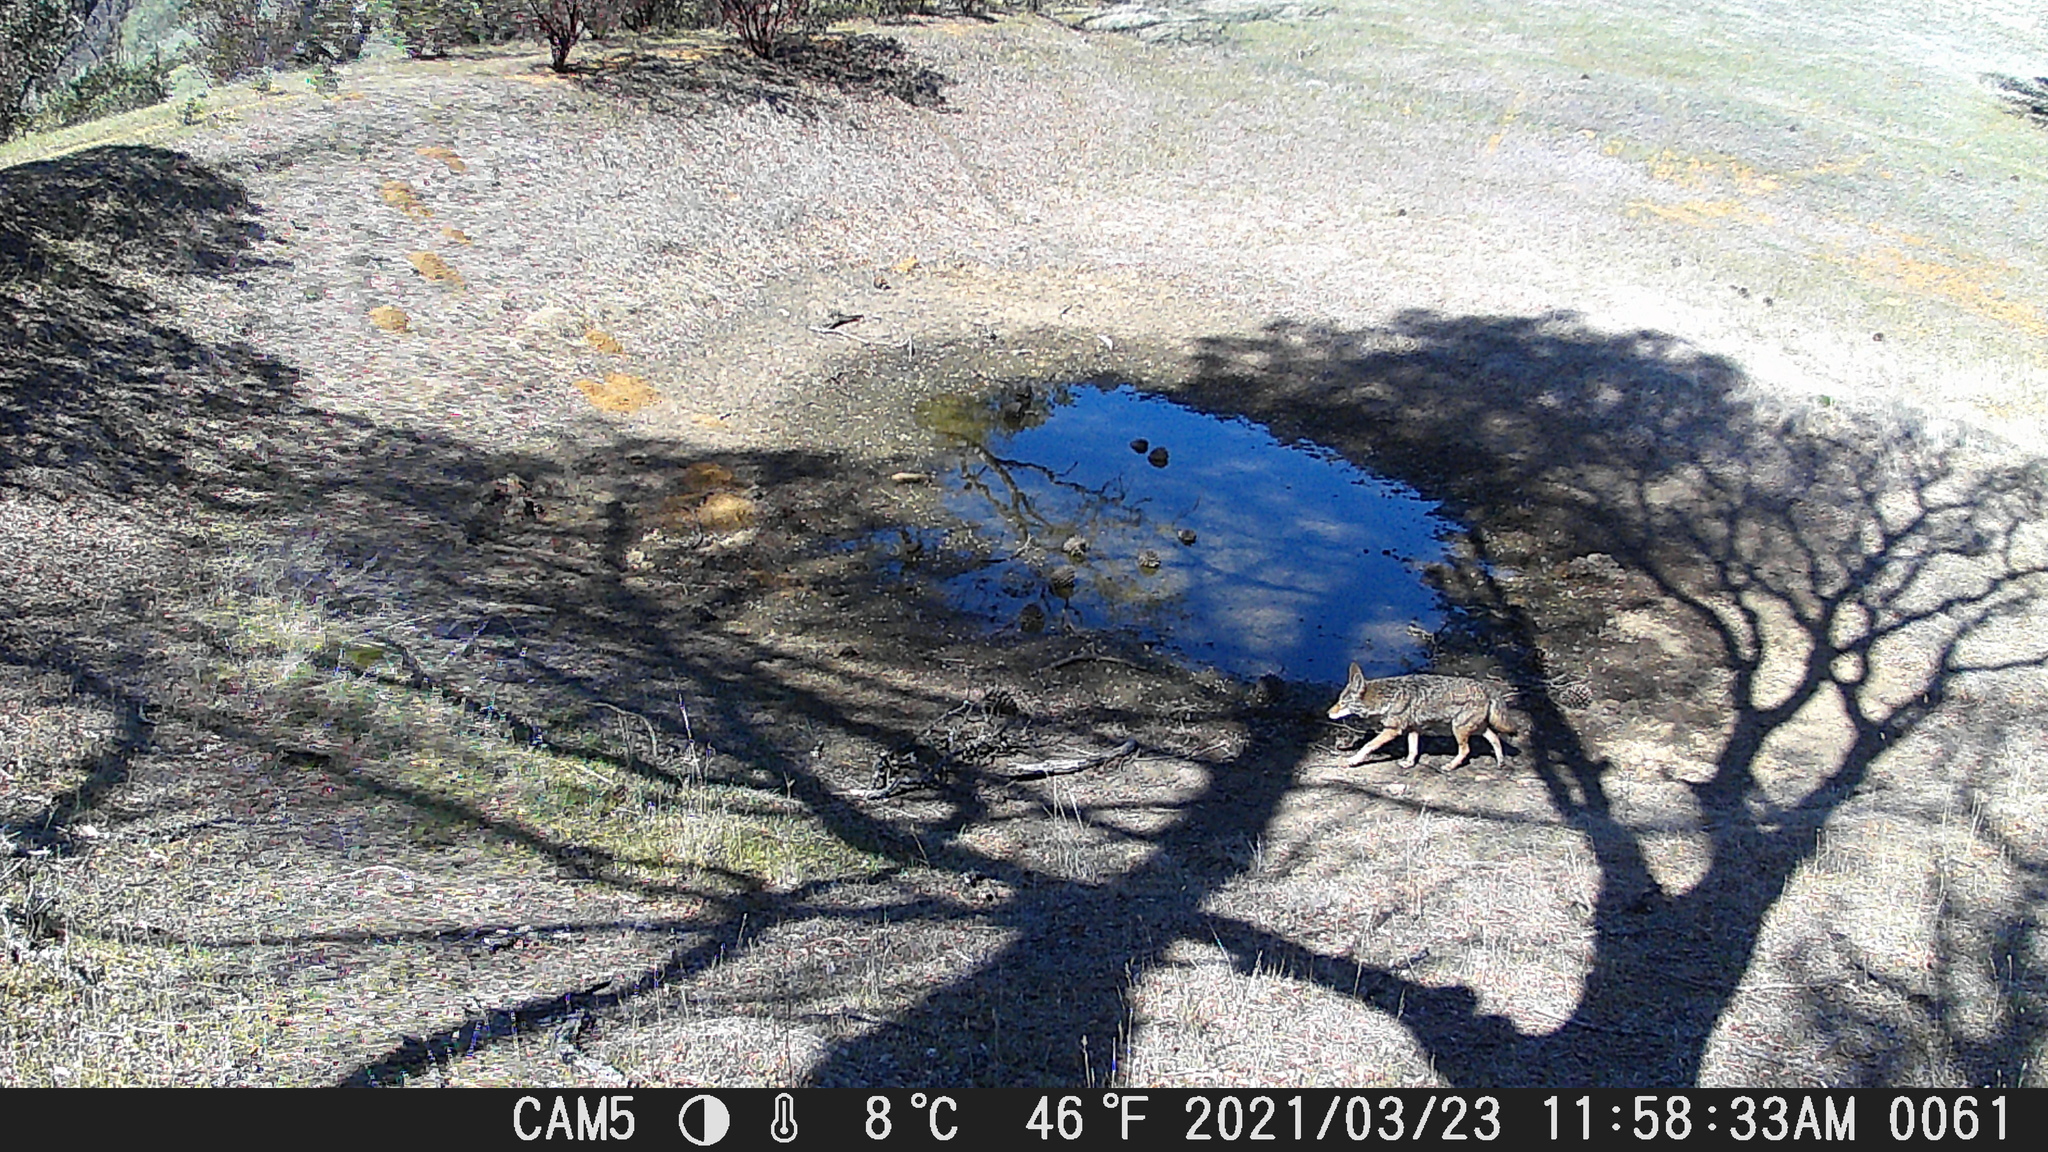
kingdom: Animalia
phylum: Chordata
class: Mammalia
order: Carnivora
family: Canidae
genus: Canis
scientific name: Canis latrans
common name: Coyote
